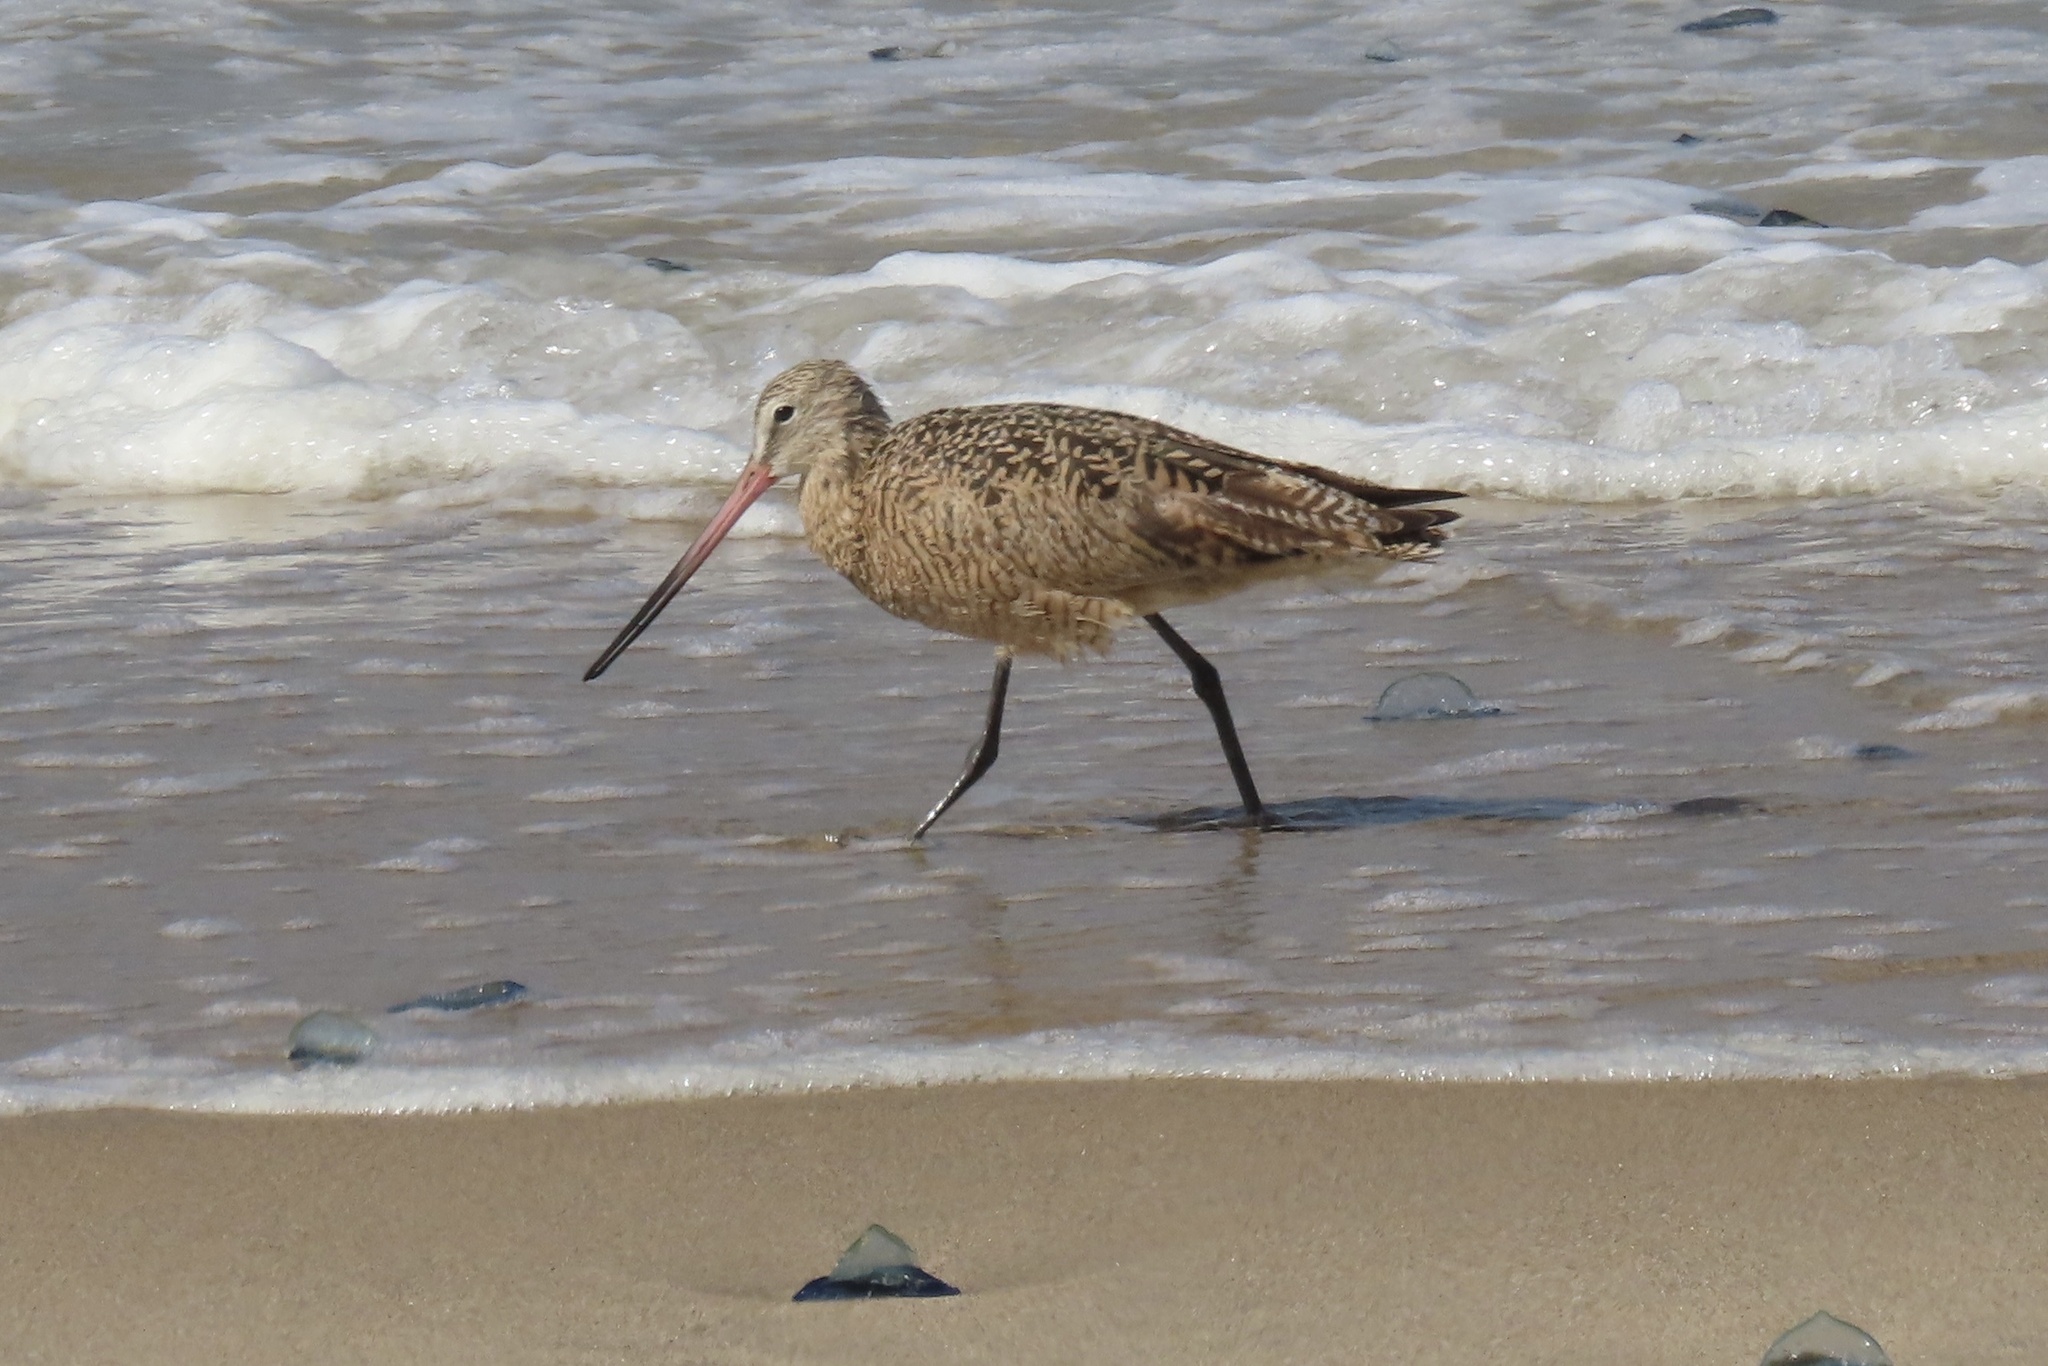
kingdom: Animalia
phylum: Chordata
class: Aves
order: Charadriiformes
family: Scolopacidae
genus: Limosa
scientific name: Limosa fedoa
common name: Marbled godwit
